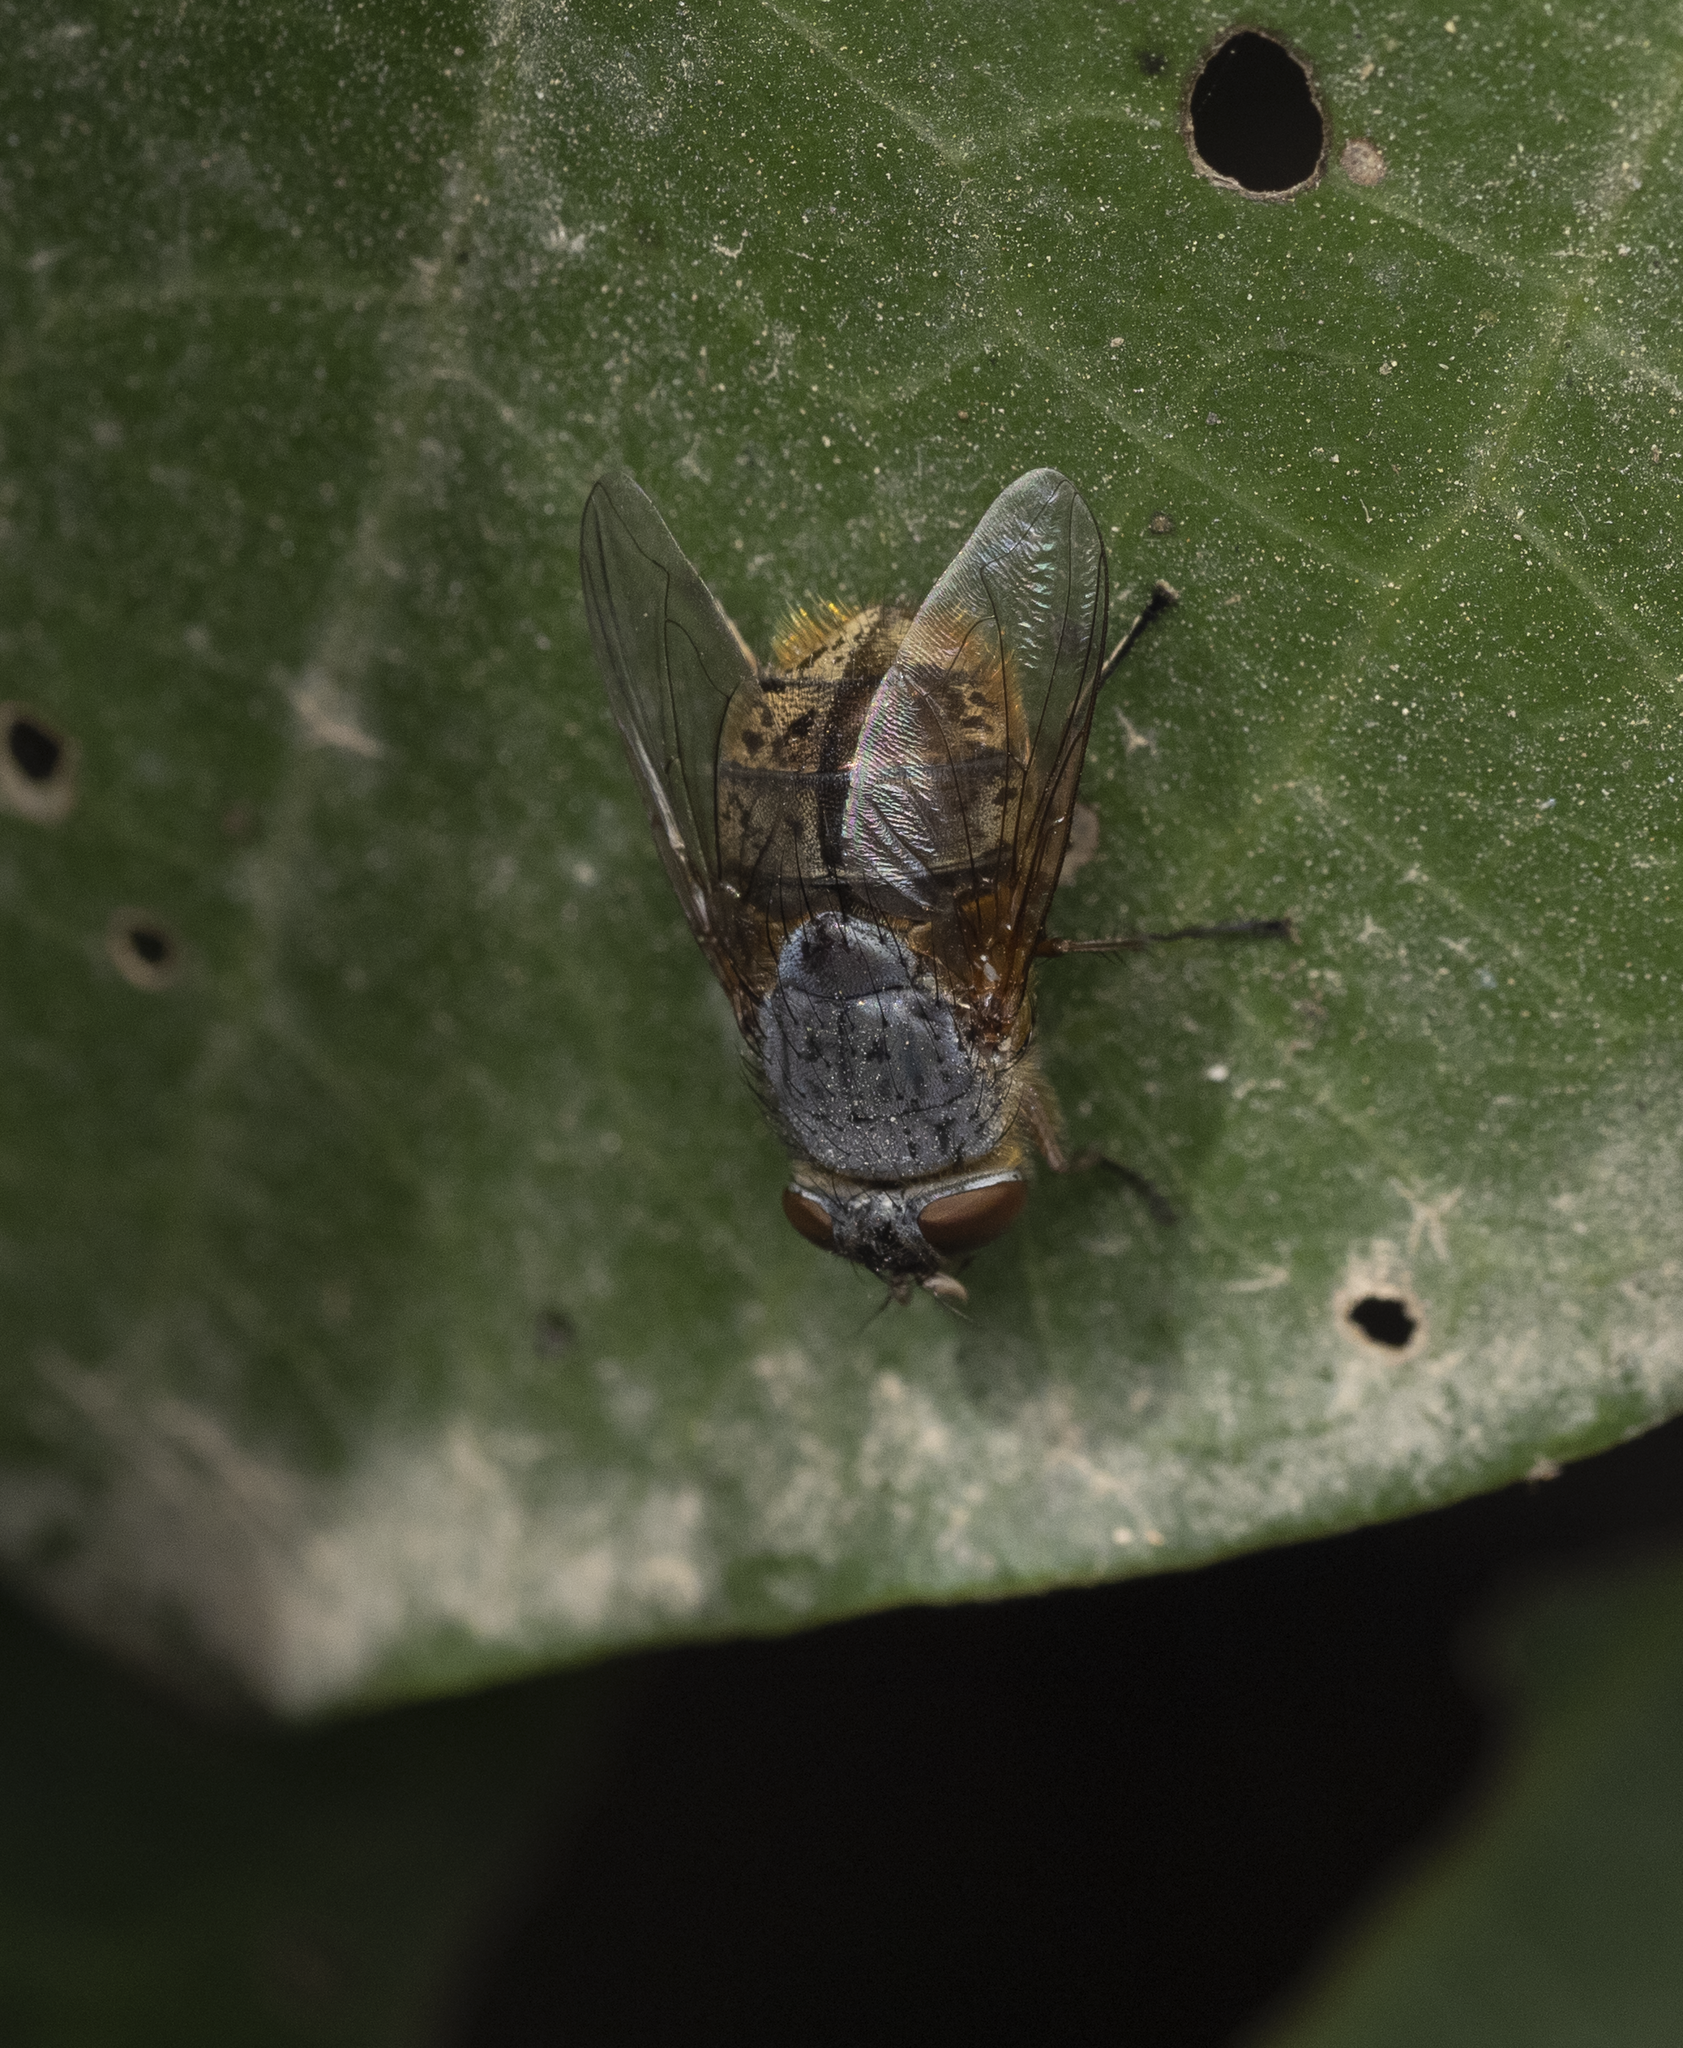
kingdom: Animalia
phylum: Arthropoda
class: Insecta
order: Diptera
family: Calliphoridae
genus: Calliphora
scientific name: Calliphora stygia
